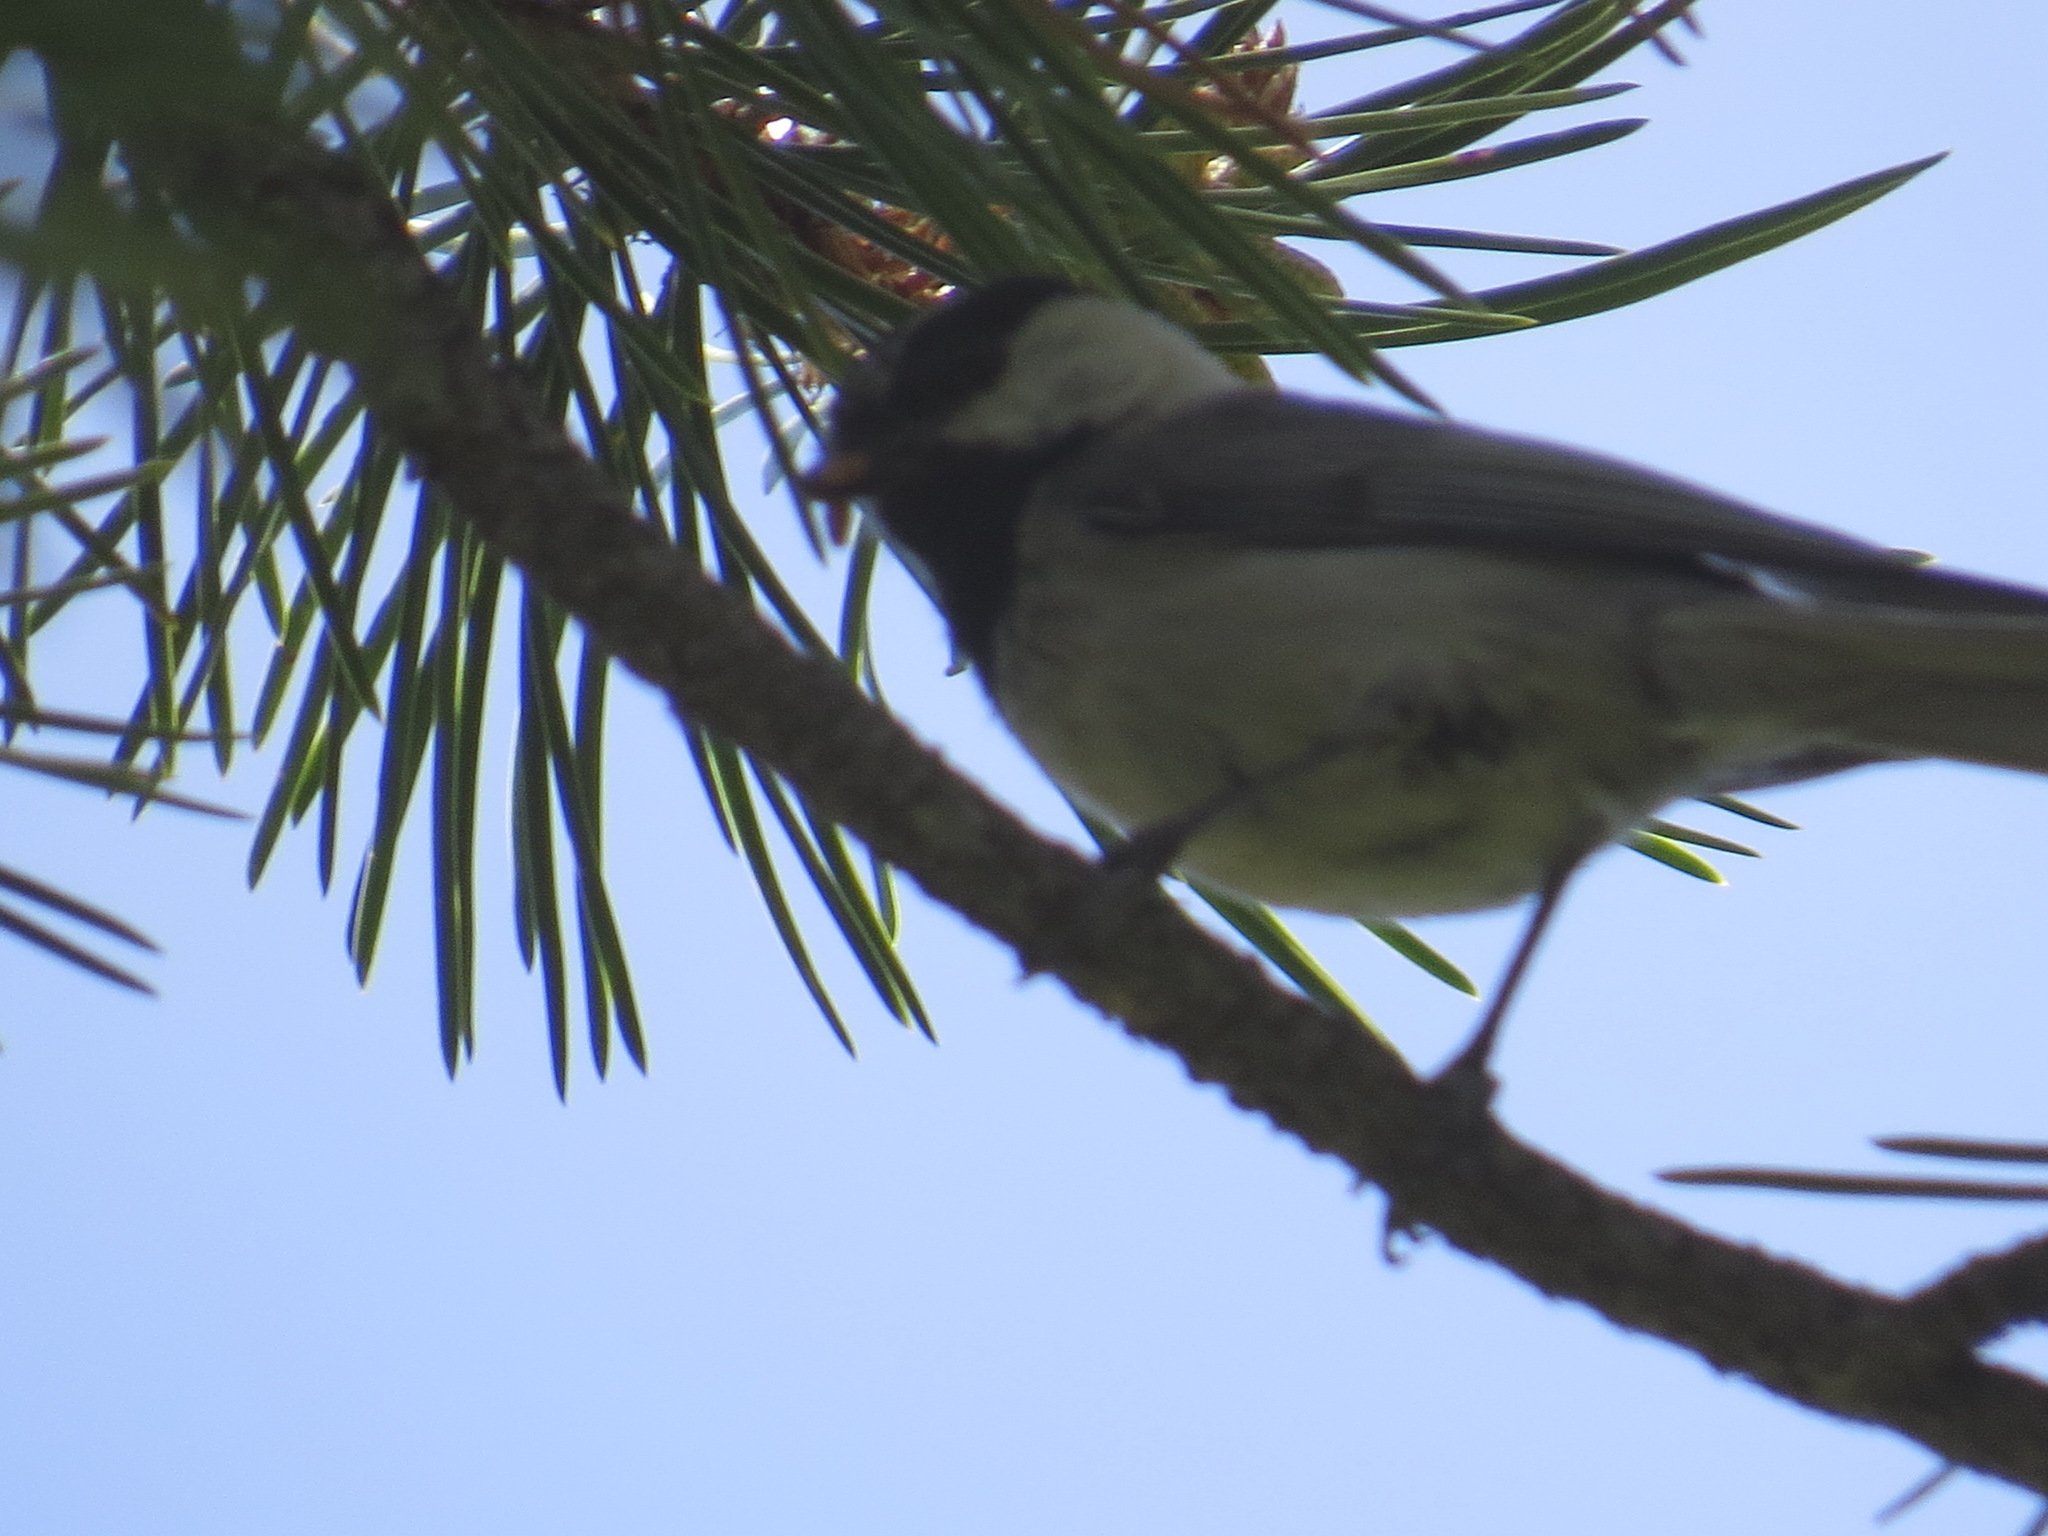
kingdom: Animalia
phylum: Chordata
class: Aves
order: Passeriformes
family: Paridae
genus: Poecile
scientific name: Poecile gambeli
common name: Mountain chickadee
